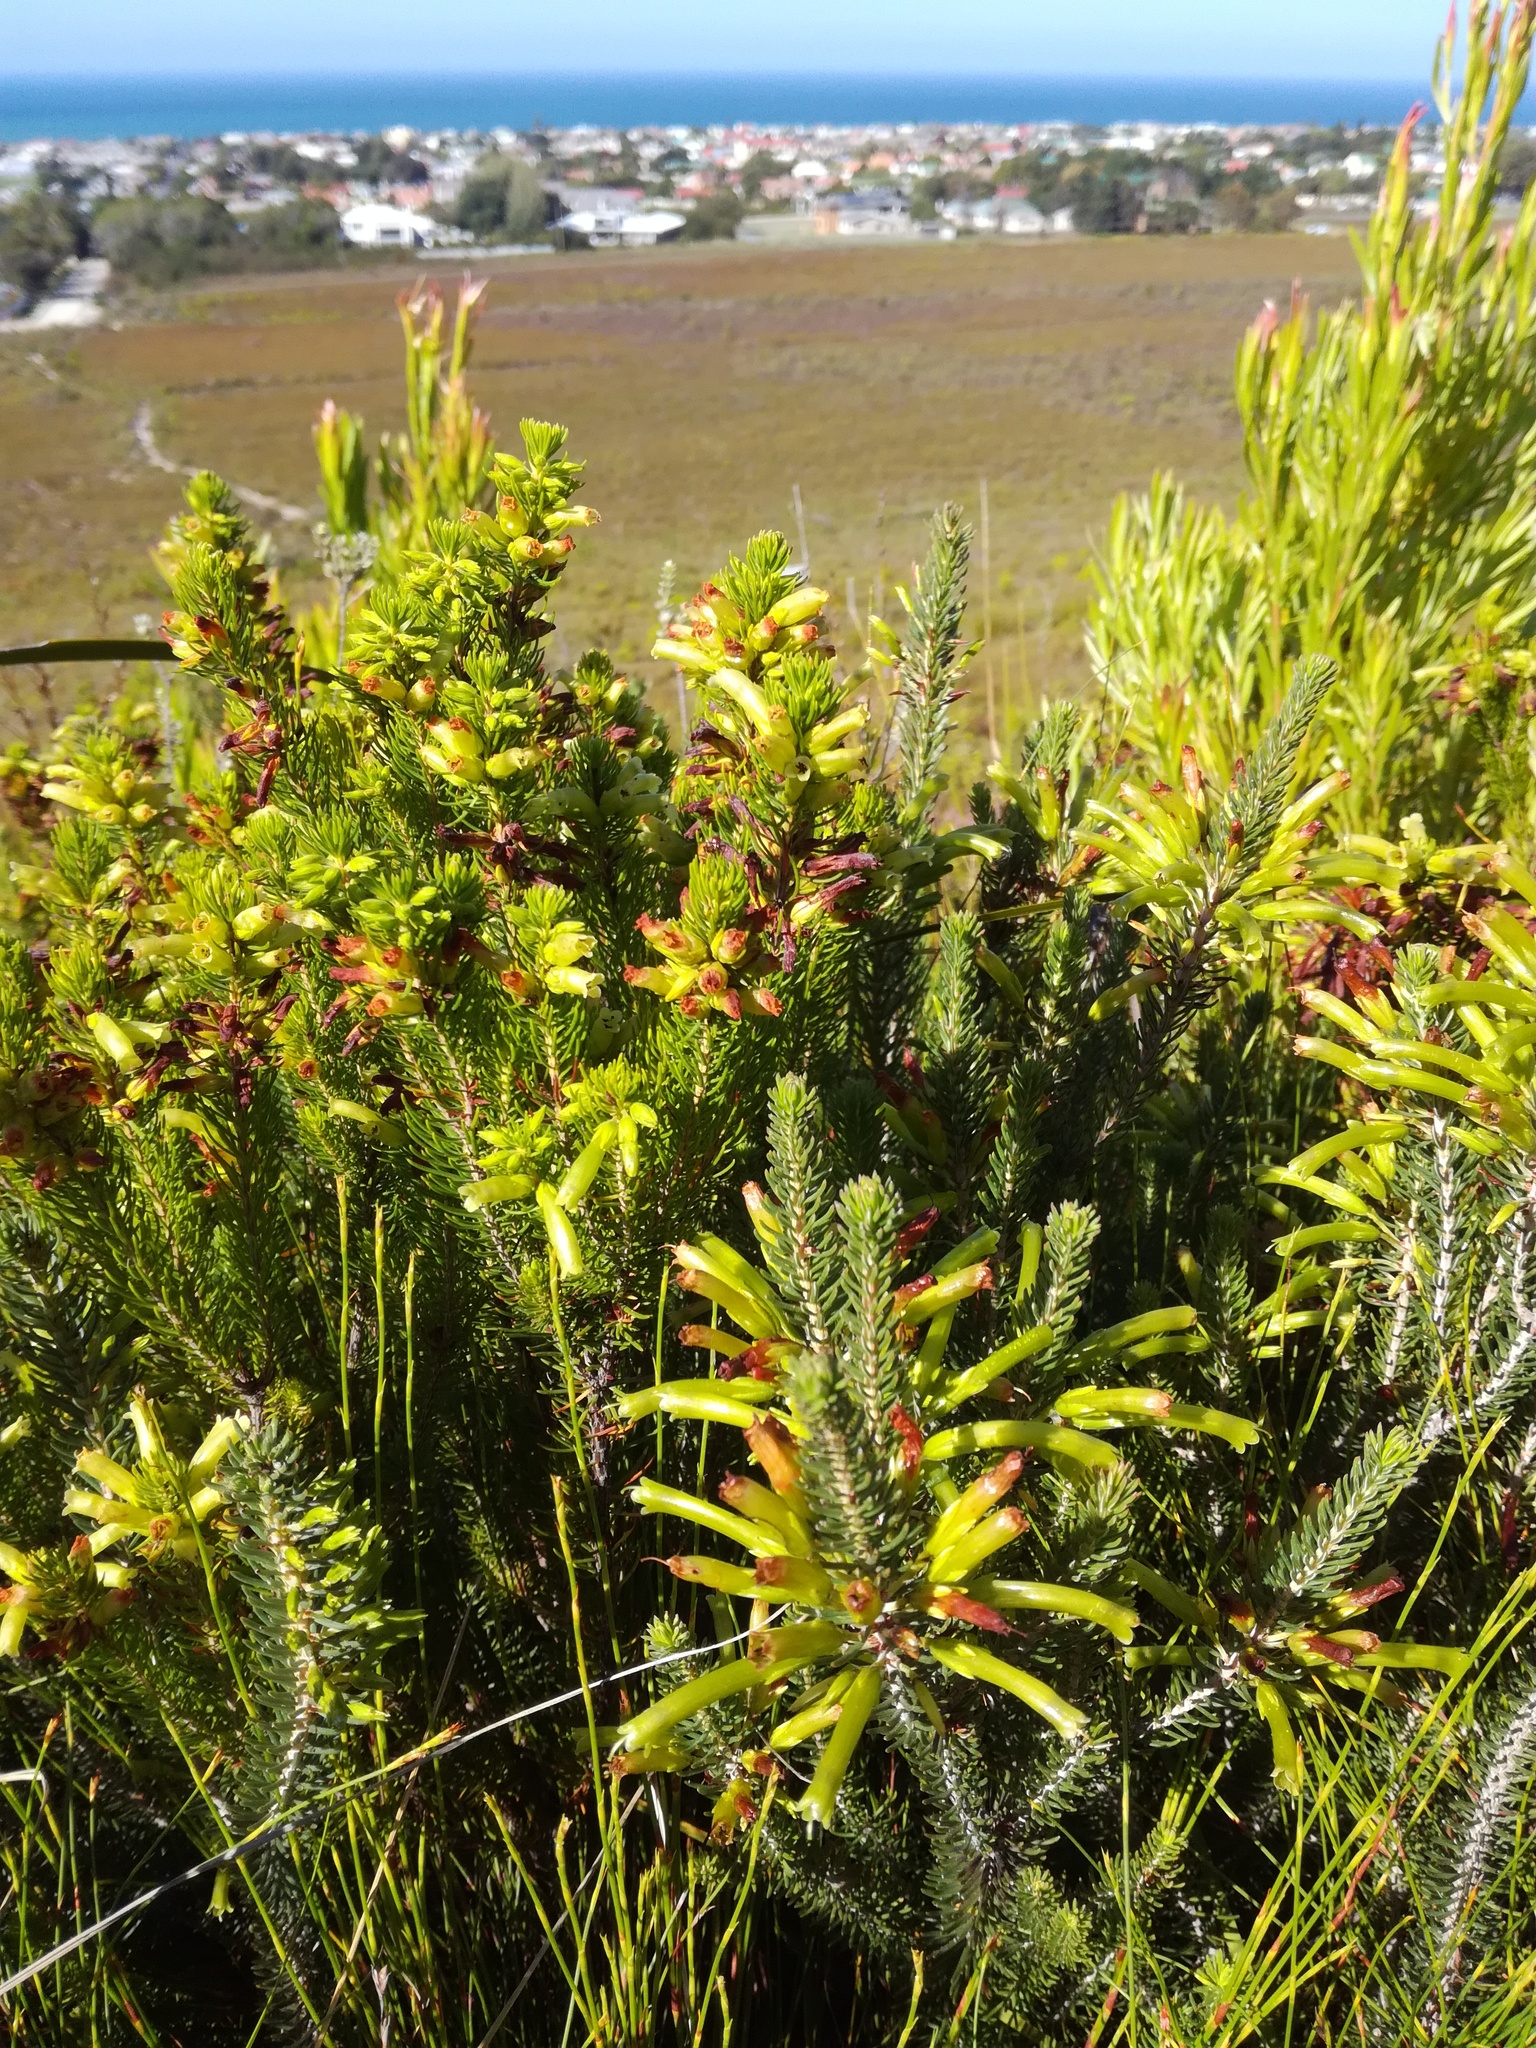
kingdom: Plantae
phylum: Tracheophyta
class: Magnoliopsida
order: Ericales
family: Ericaceae
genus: Erica
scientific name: Erica thomae
